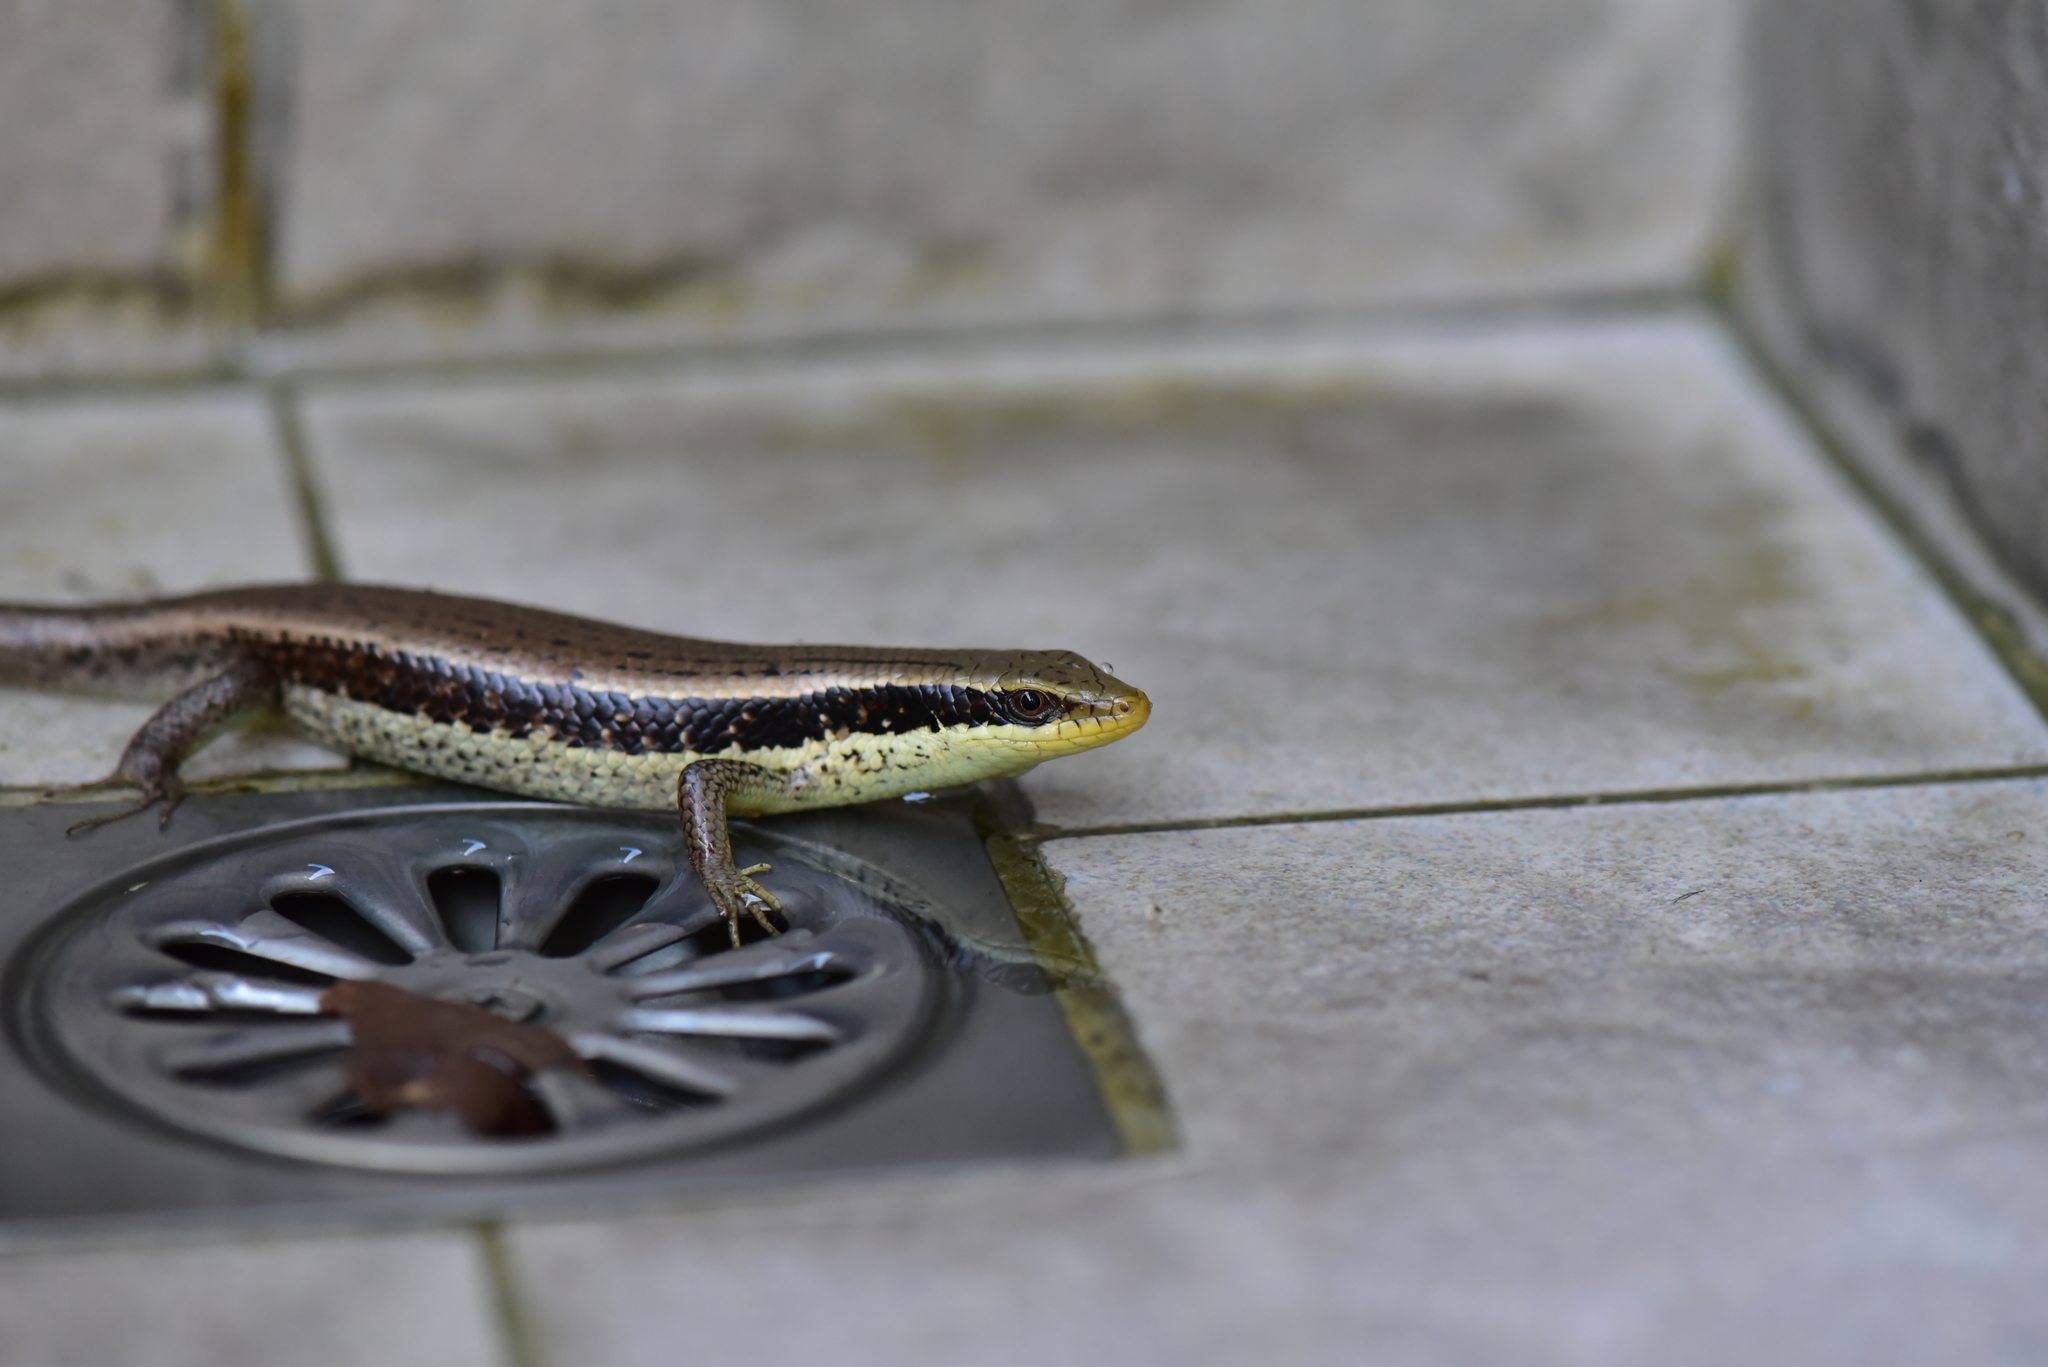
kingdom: Animalia
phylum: Chordata
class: Squamata
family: Scincidae
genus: Eutropis
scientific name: Eutropis longicaudata
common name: Long-tailed sun skink
